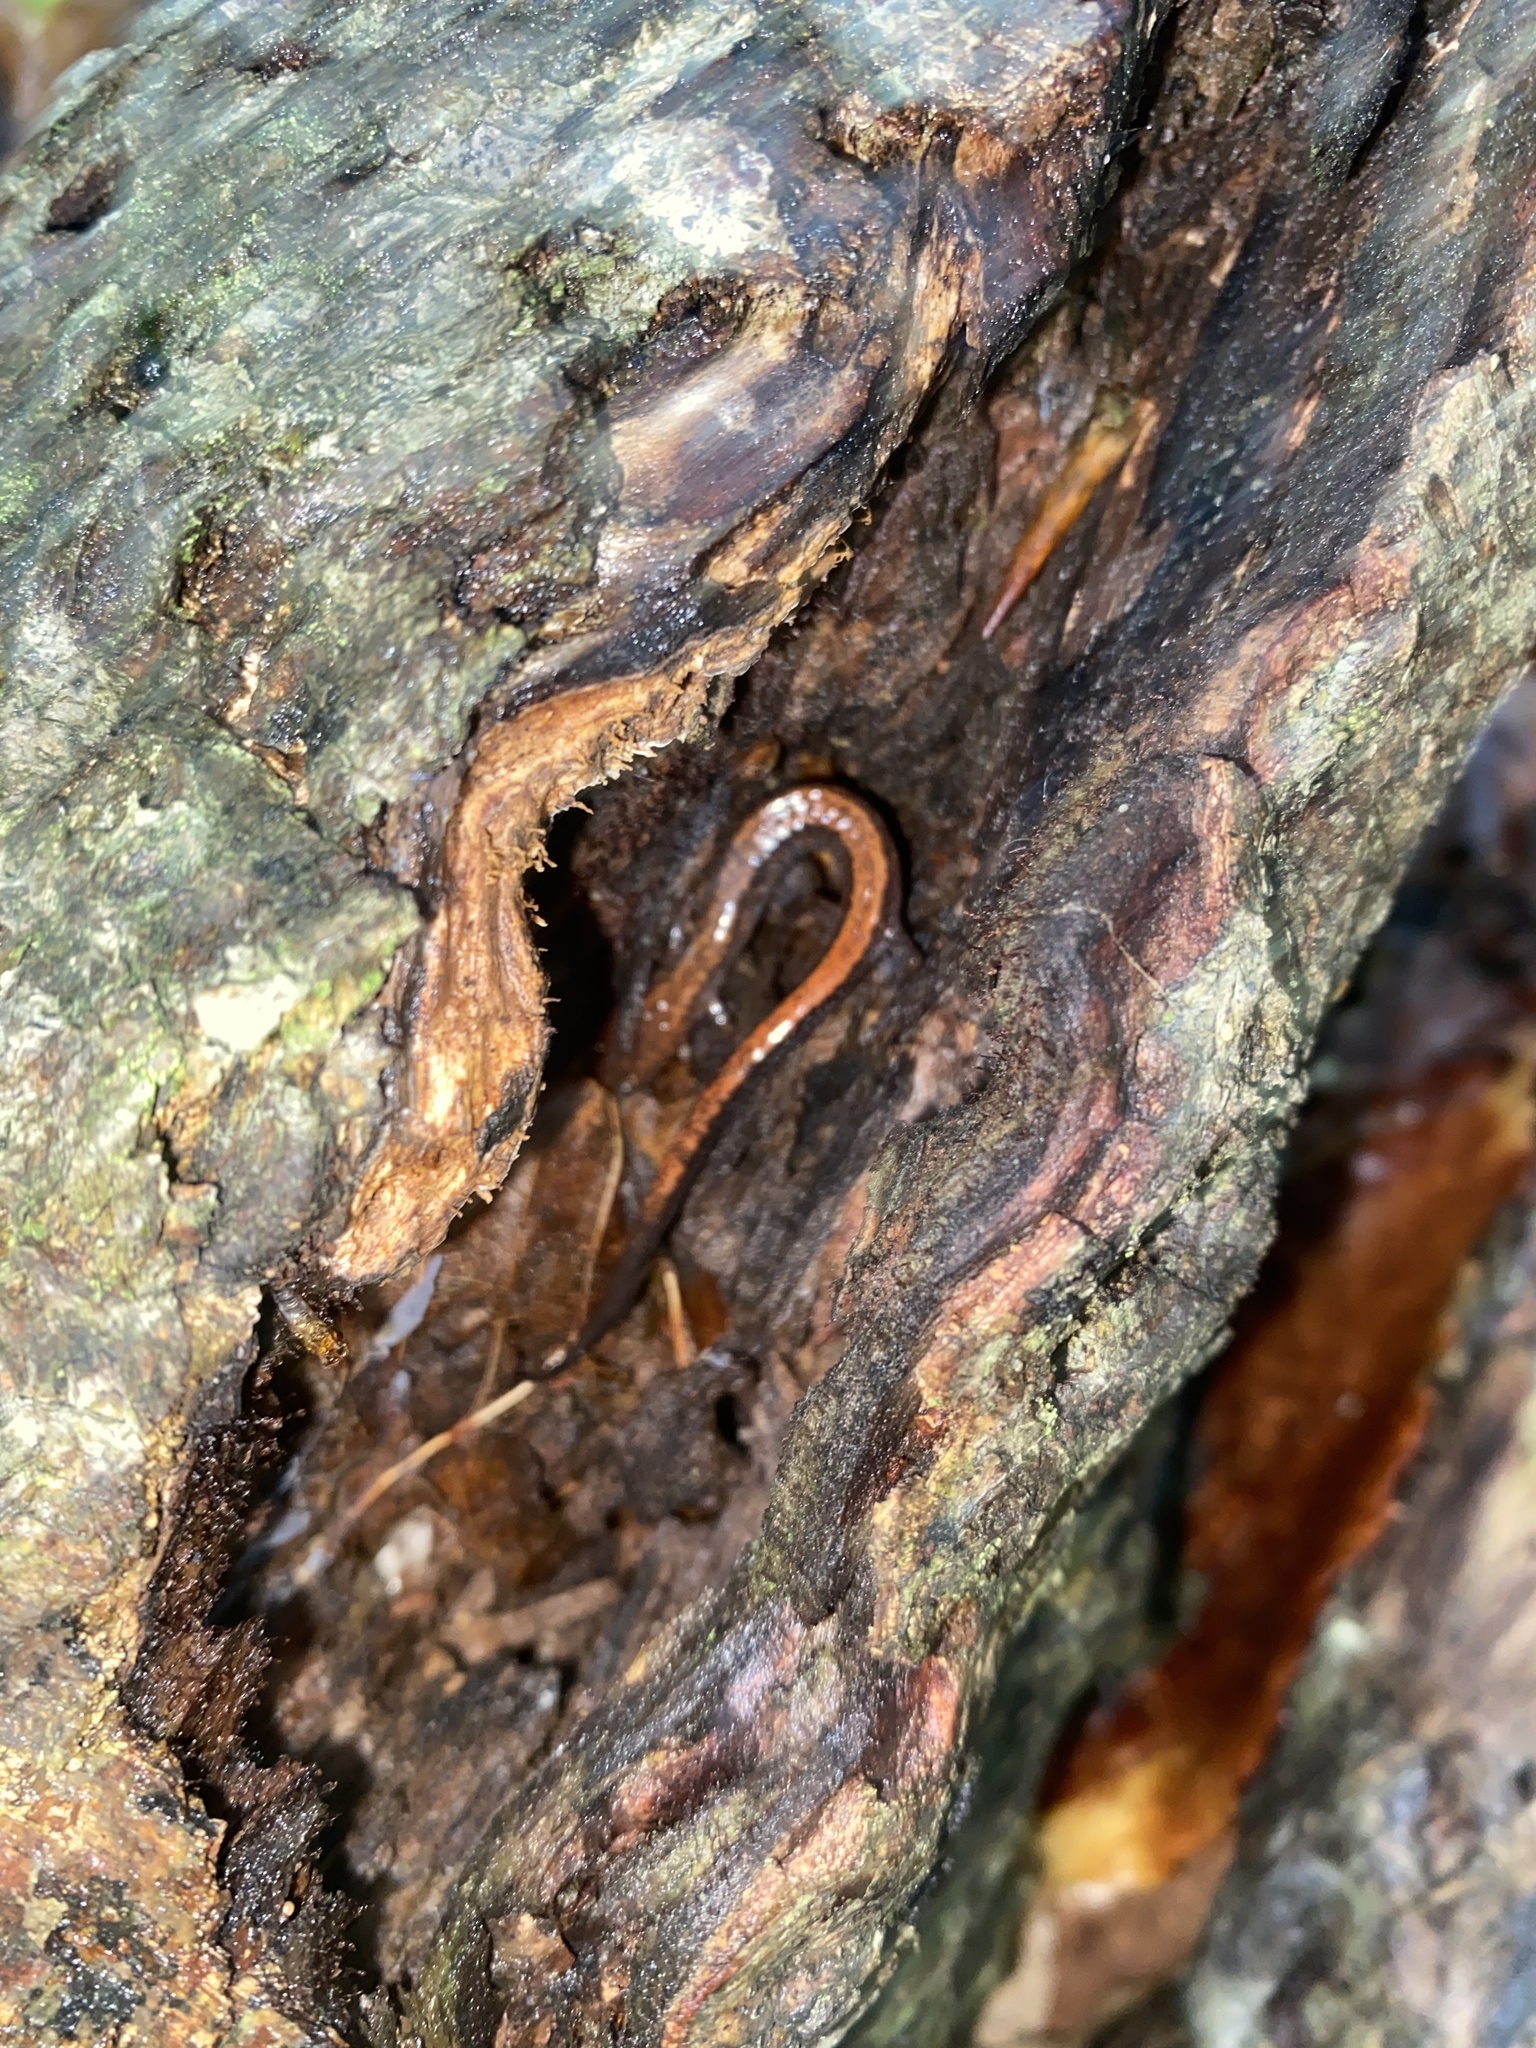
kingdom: Animalia
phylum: Chordata
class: Amphibia
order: Caudata
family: Plethodontidae
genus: Plethodon
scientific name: Plethodon cinereus
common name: Redback salamander
